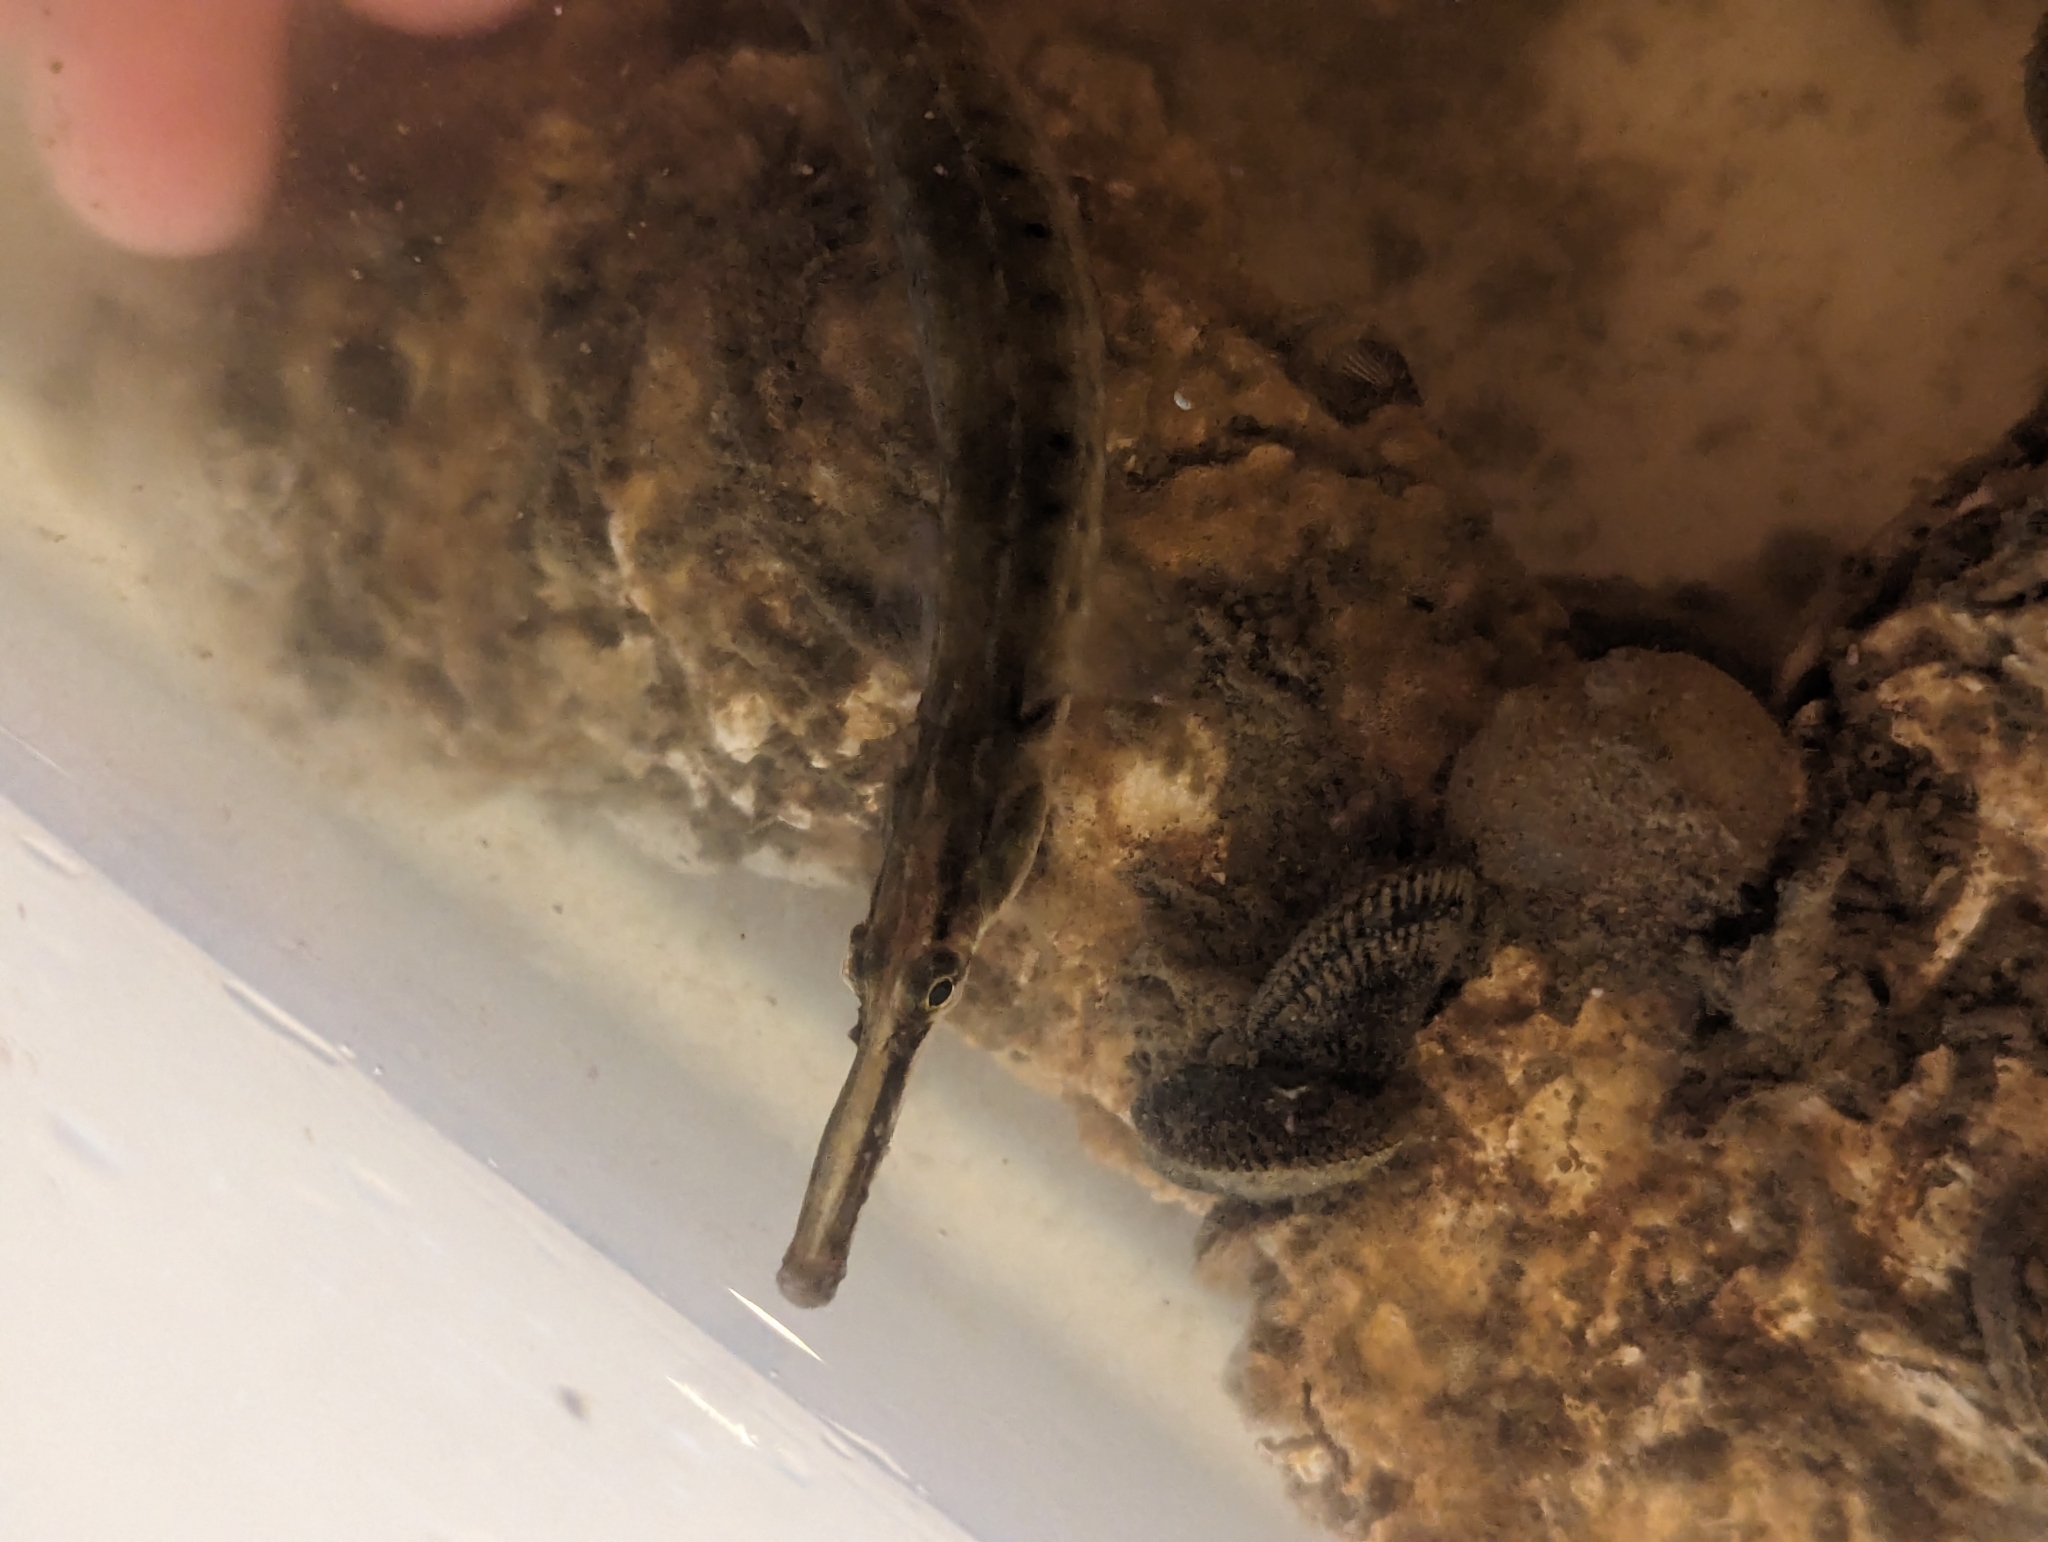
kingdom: Animalia
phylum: Chordata
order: Syngnathiformes
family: Syngnathidae
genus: Syngnathus
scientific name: Syngnathus fuscus
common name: Northern pipefish
